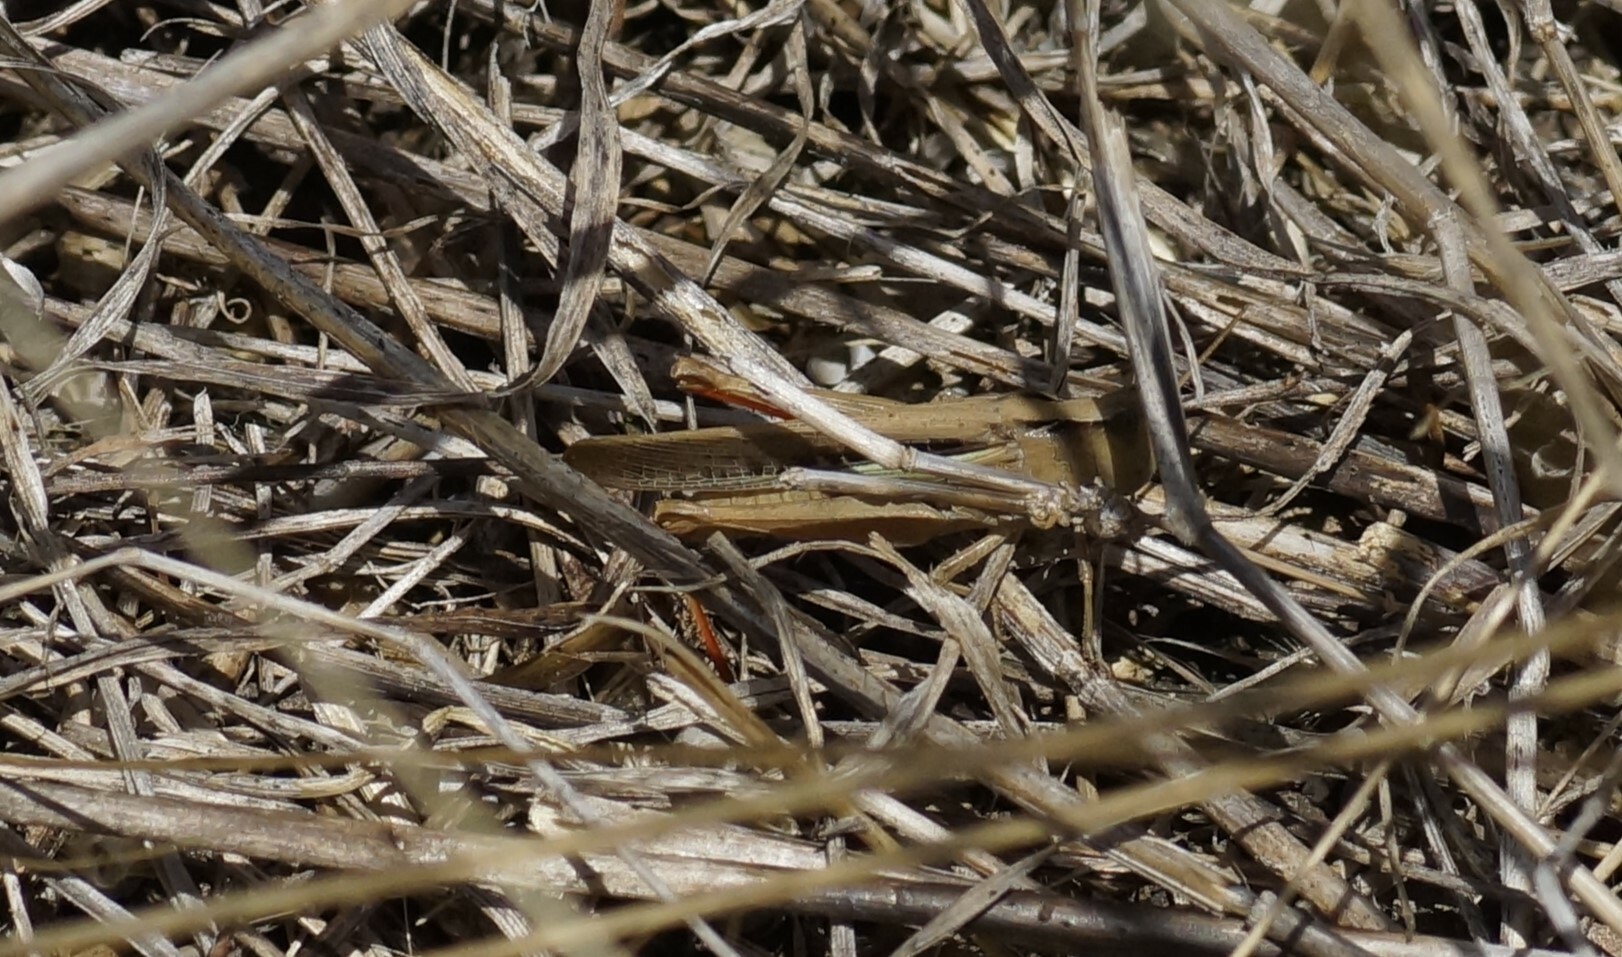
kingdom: Animalia
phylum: Arthropoda
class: Insecta
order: Orthoptera
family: Acrididae
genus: Schizobothrus
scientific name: Schizobothrus flavovittatus
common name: Disappearing grasshopper
